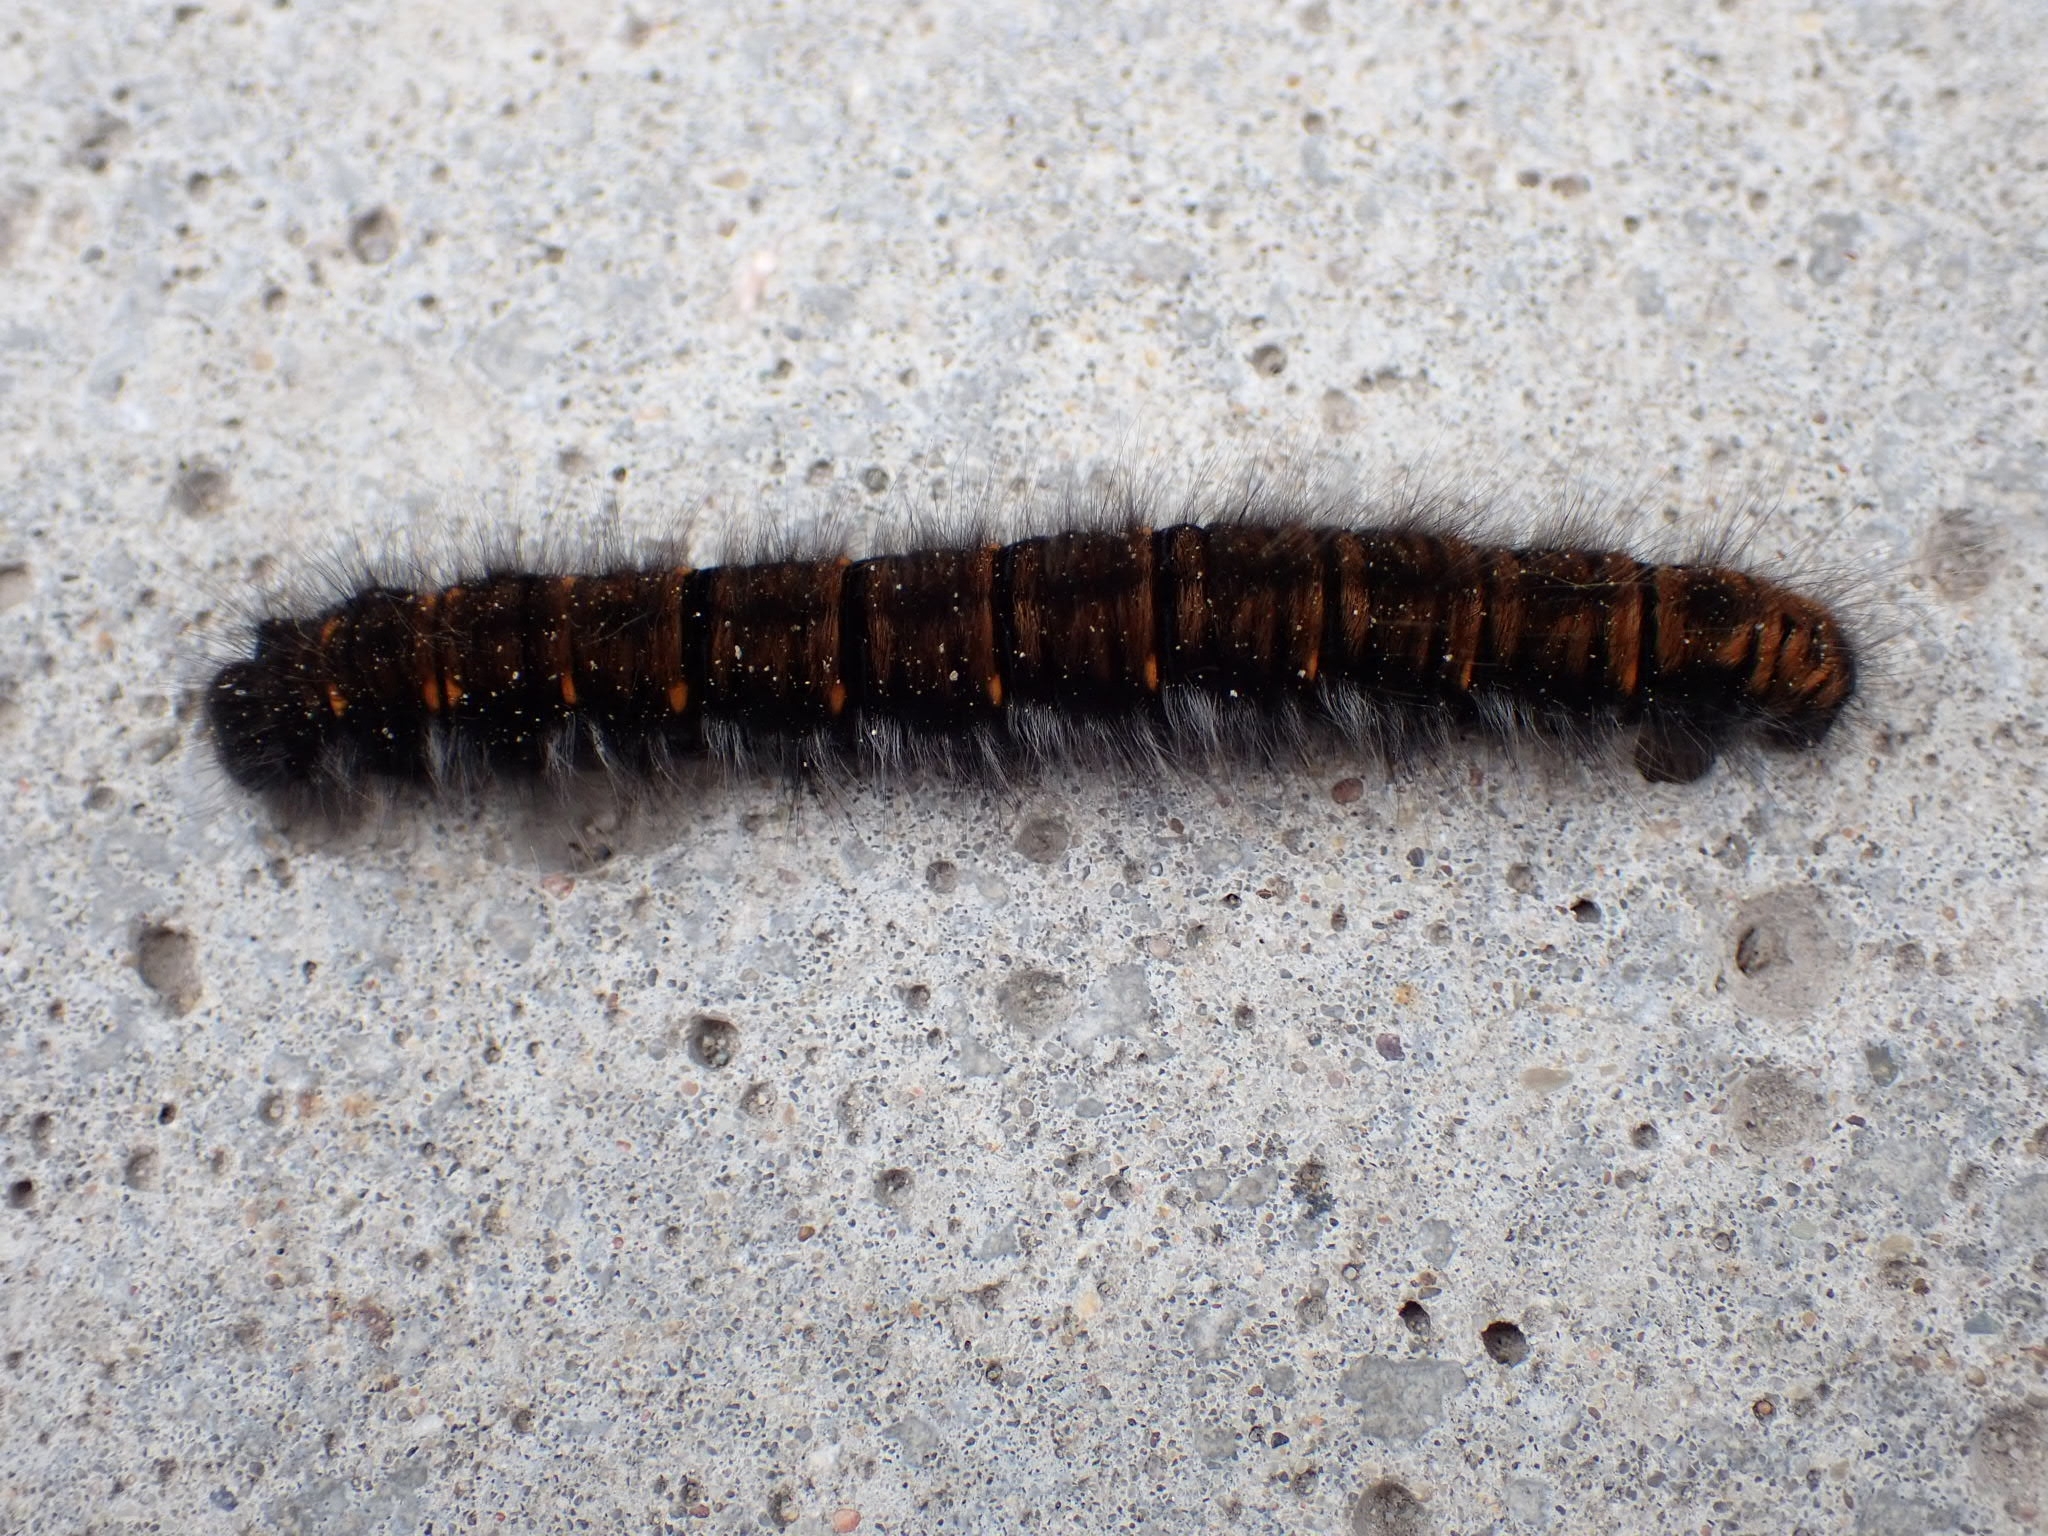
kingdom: Animalia
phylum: Arthropoda
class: Insecta
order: Lepidoptera
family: Lasiocampidae
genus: Macrothylacia
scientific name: Macrothylacia rubi
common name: Fox moth
